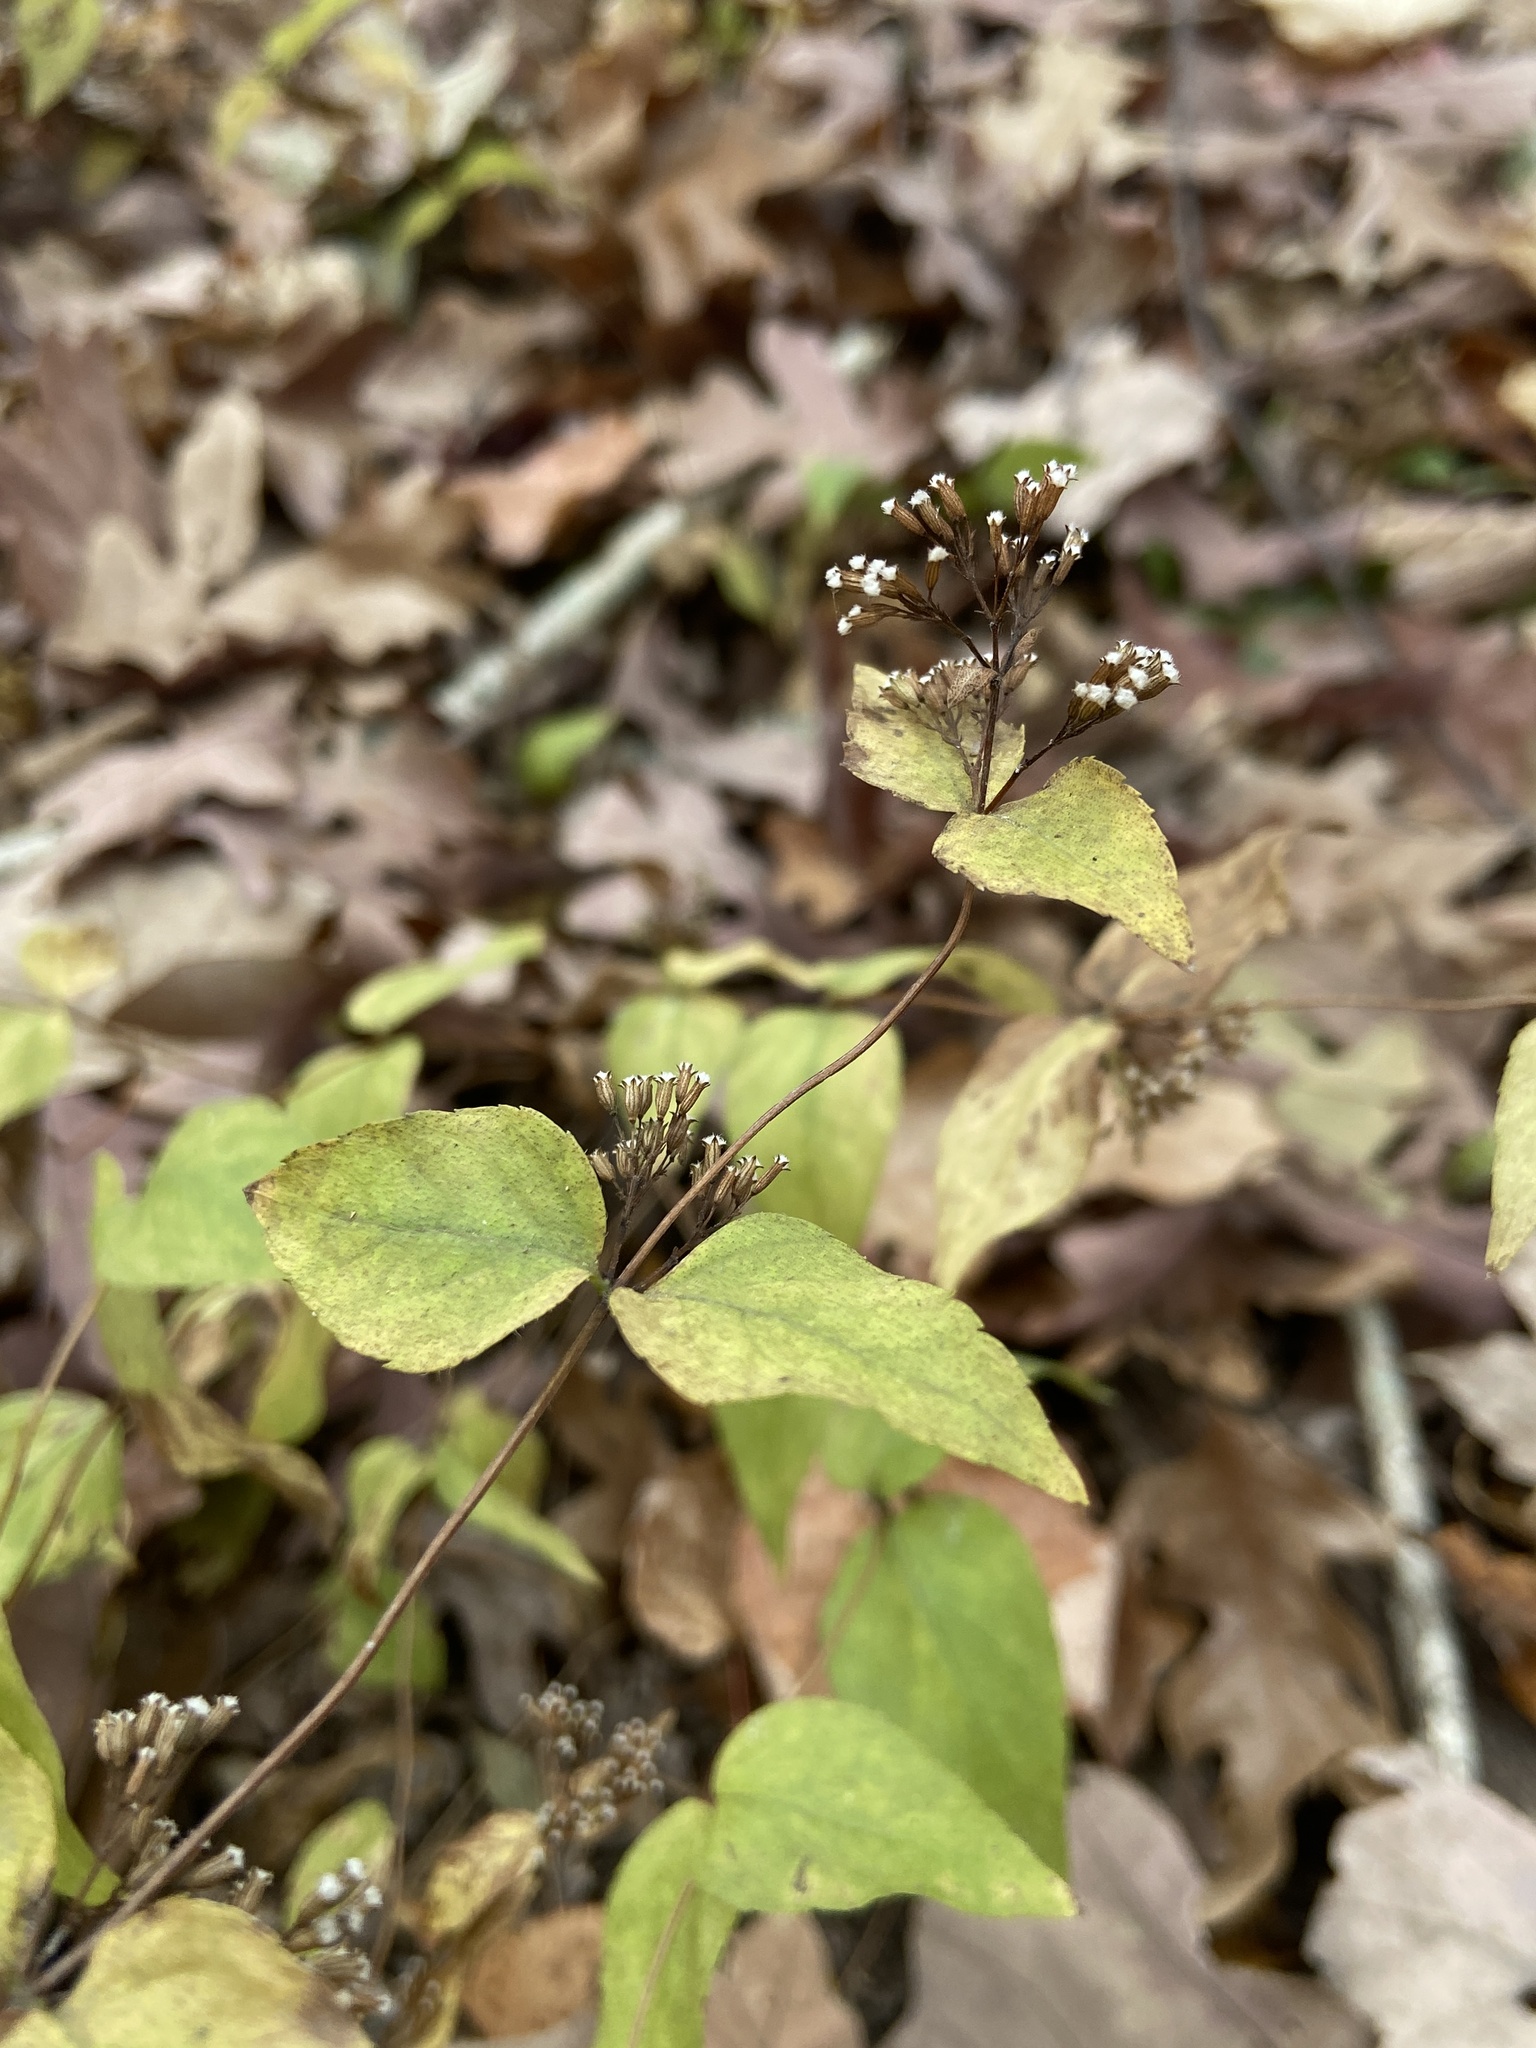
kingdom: Plantae
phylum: Tracheophyta
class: Magnoliopsida
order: Lamiales
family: Lamiaceae
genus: Cunila
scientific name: Cunila origanoides
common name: American dittany
